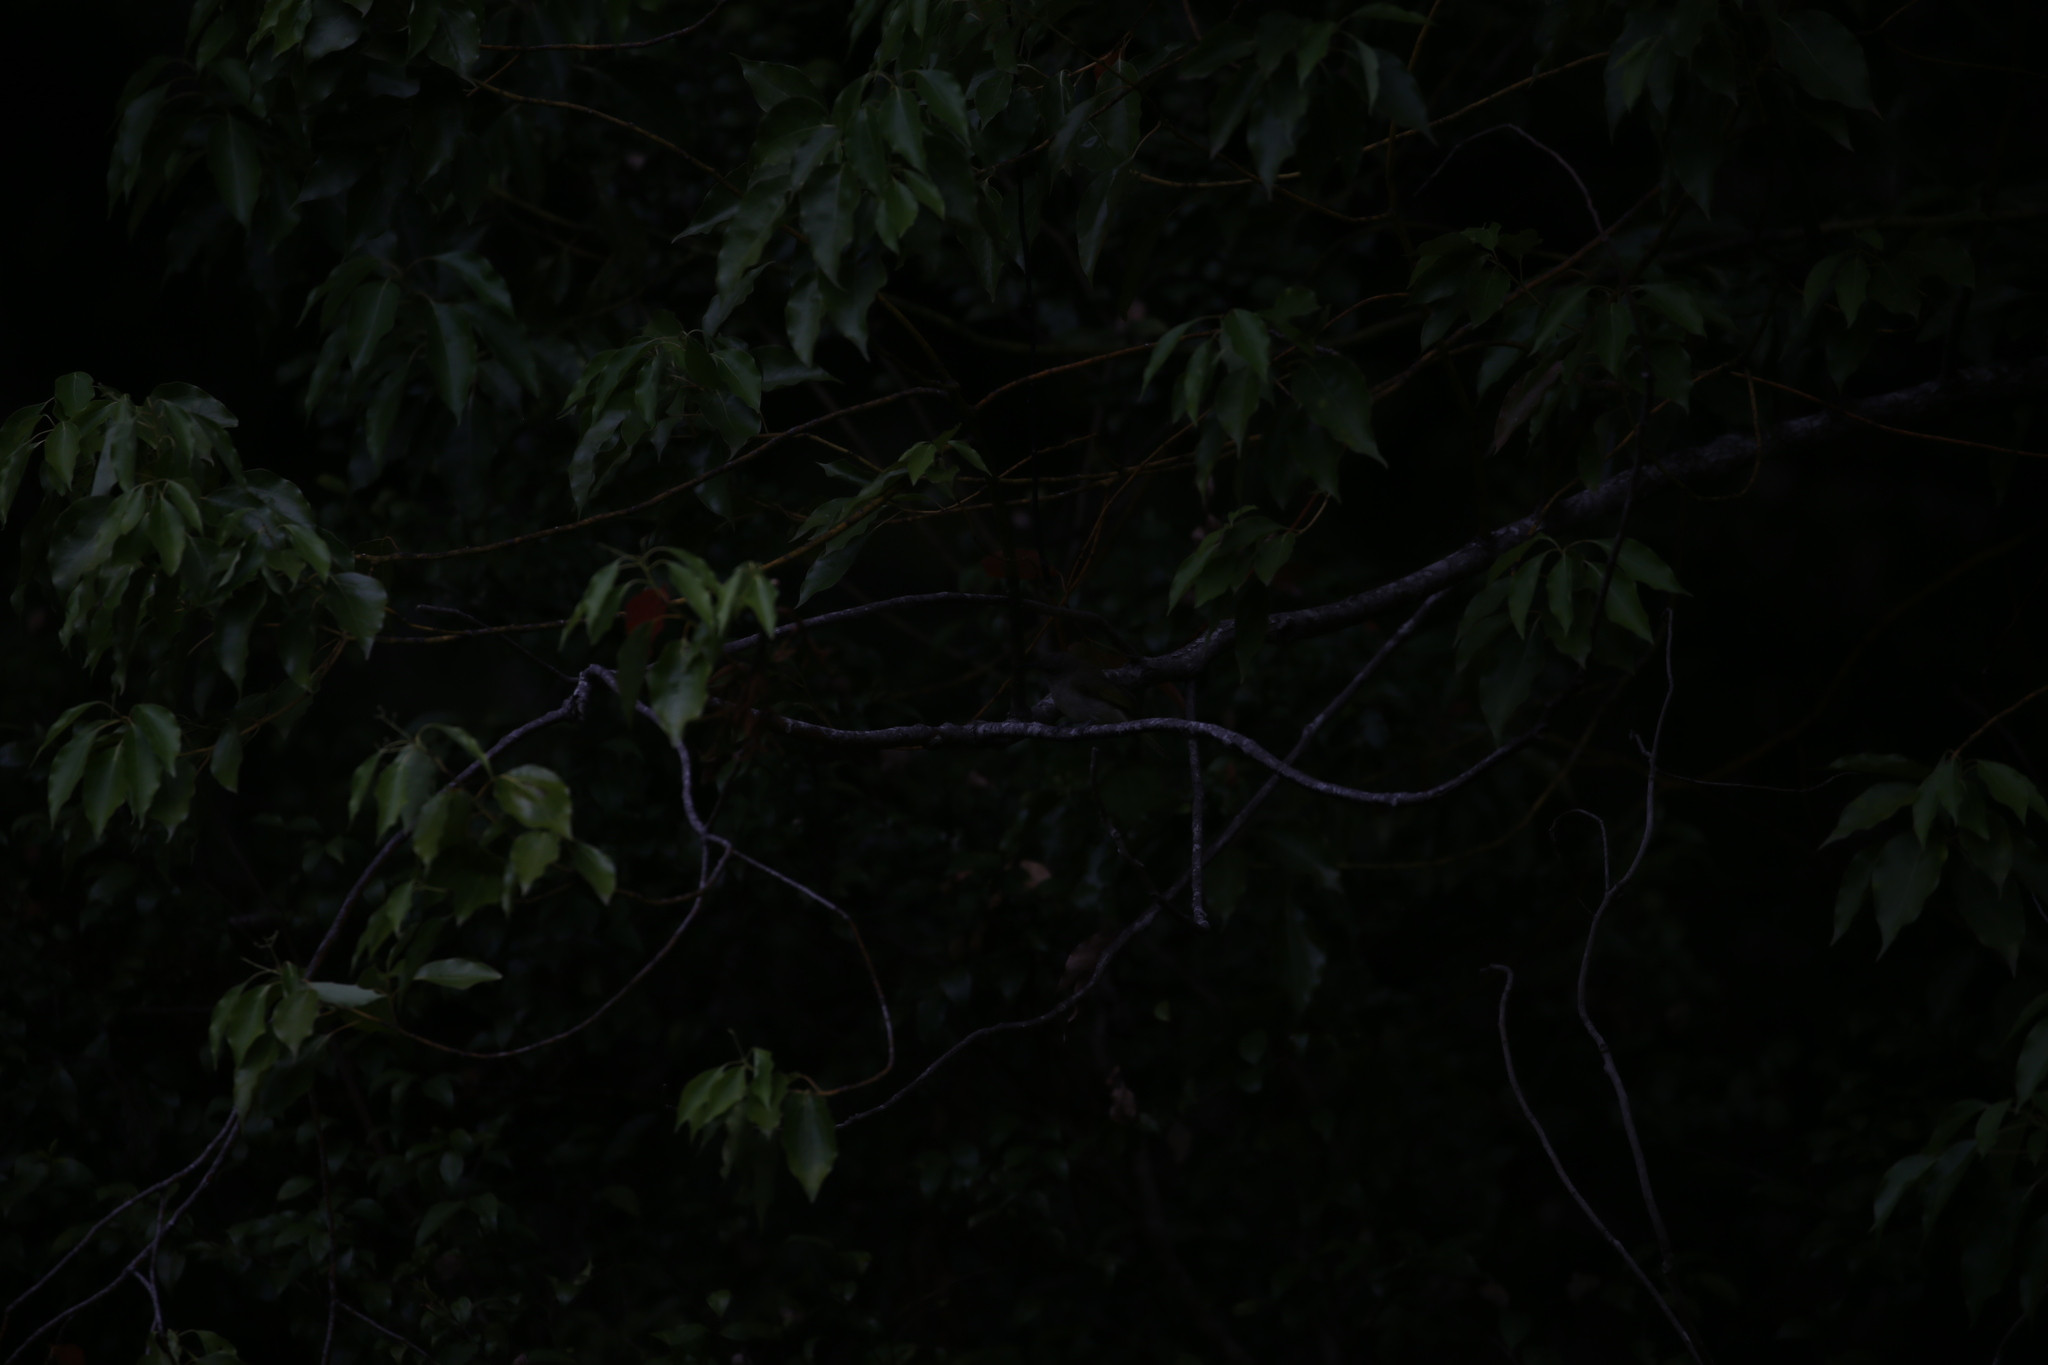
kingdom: Animalia
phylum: Chordata
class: Aves
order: Passeriformes
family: Meliphagidae
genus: Lichmera
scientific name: Lichmera indistincta
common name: Brown honeyeater
